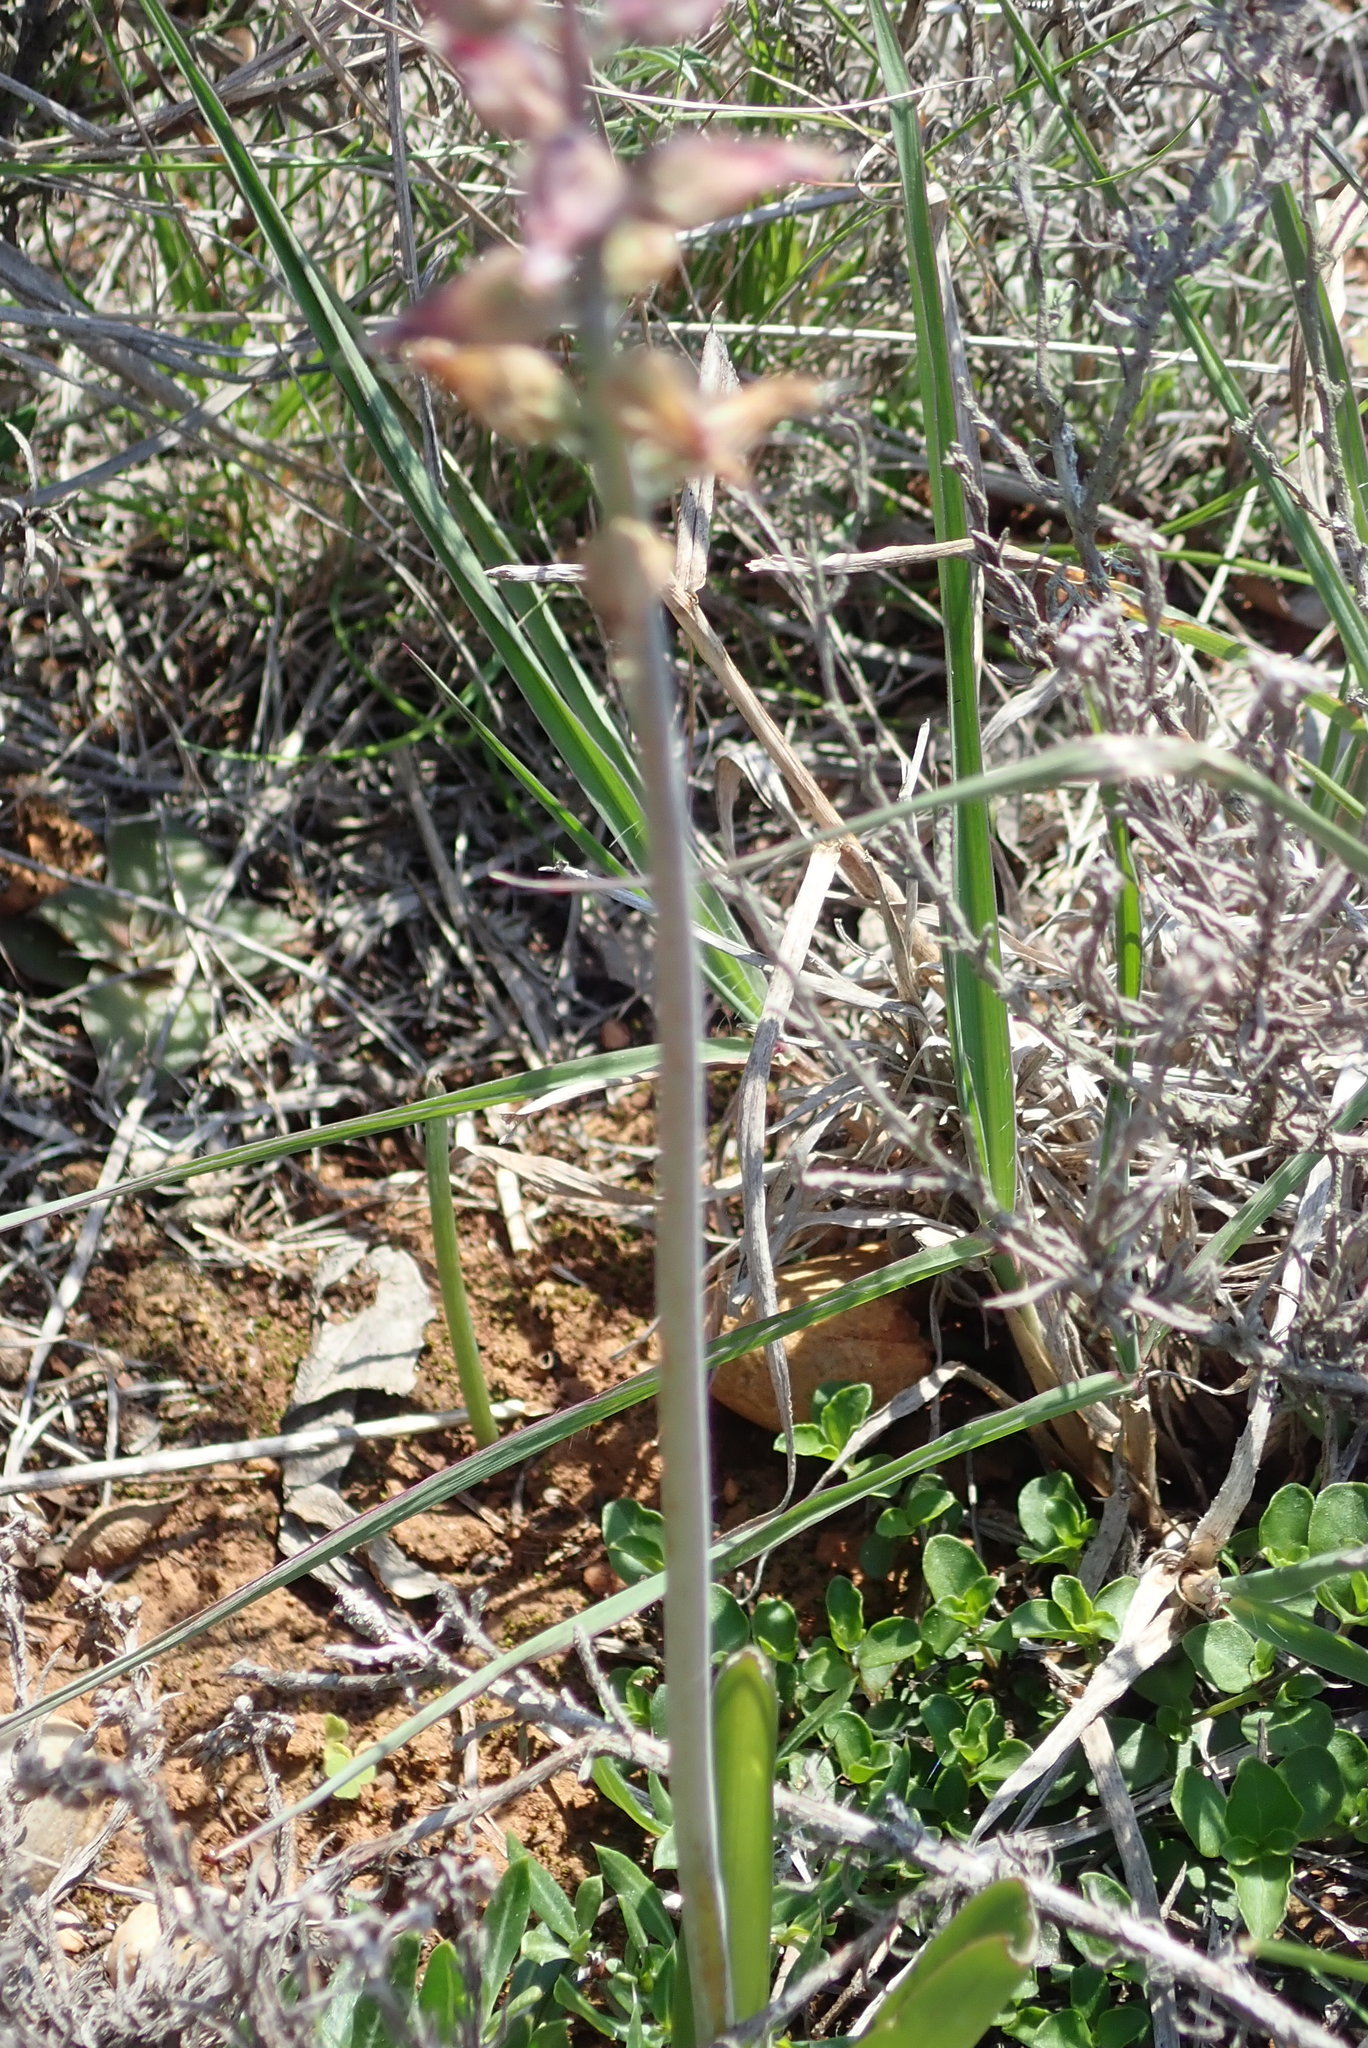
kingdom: Plantae
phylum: Tracheophyta
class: Liliopsida
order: Asparagales
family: Asparagaceae
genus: Lachenalia
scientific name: Lachenalia sessiliflora
